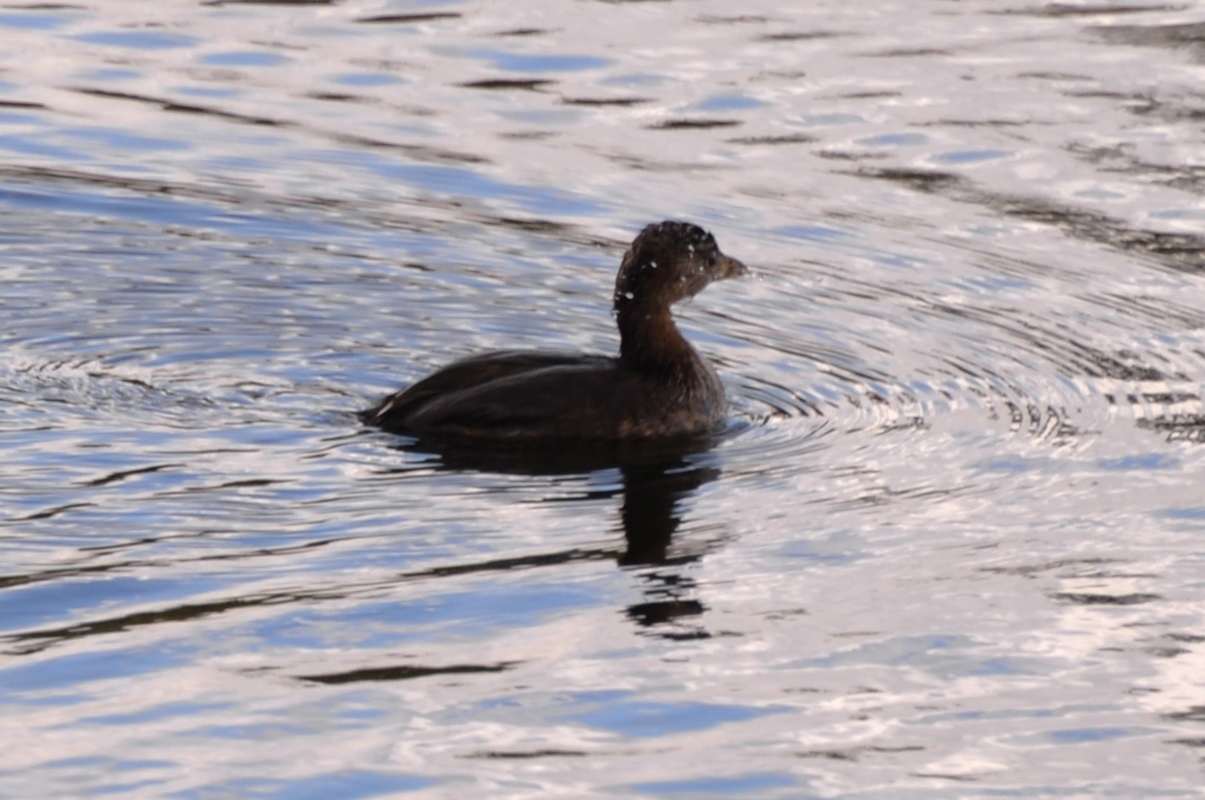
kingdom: Animalia
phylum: Chordata
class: Aves
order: Podicipediformes
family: Podicipedidae
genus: Podilymbus
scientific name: Podilymbus podiceps
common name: Pied-billed grebe
